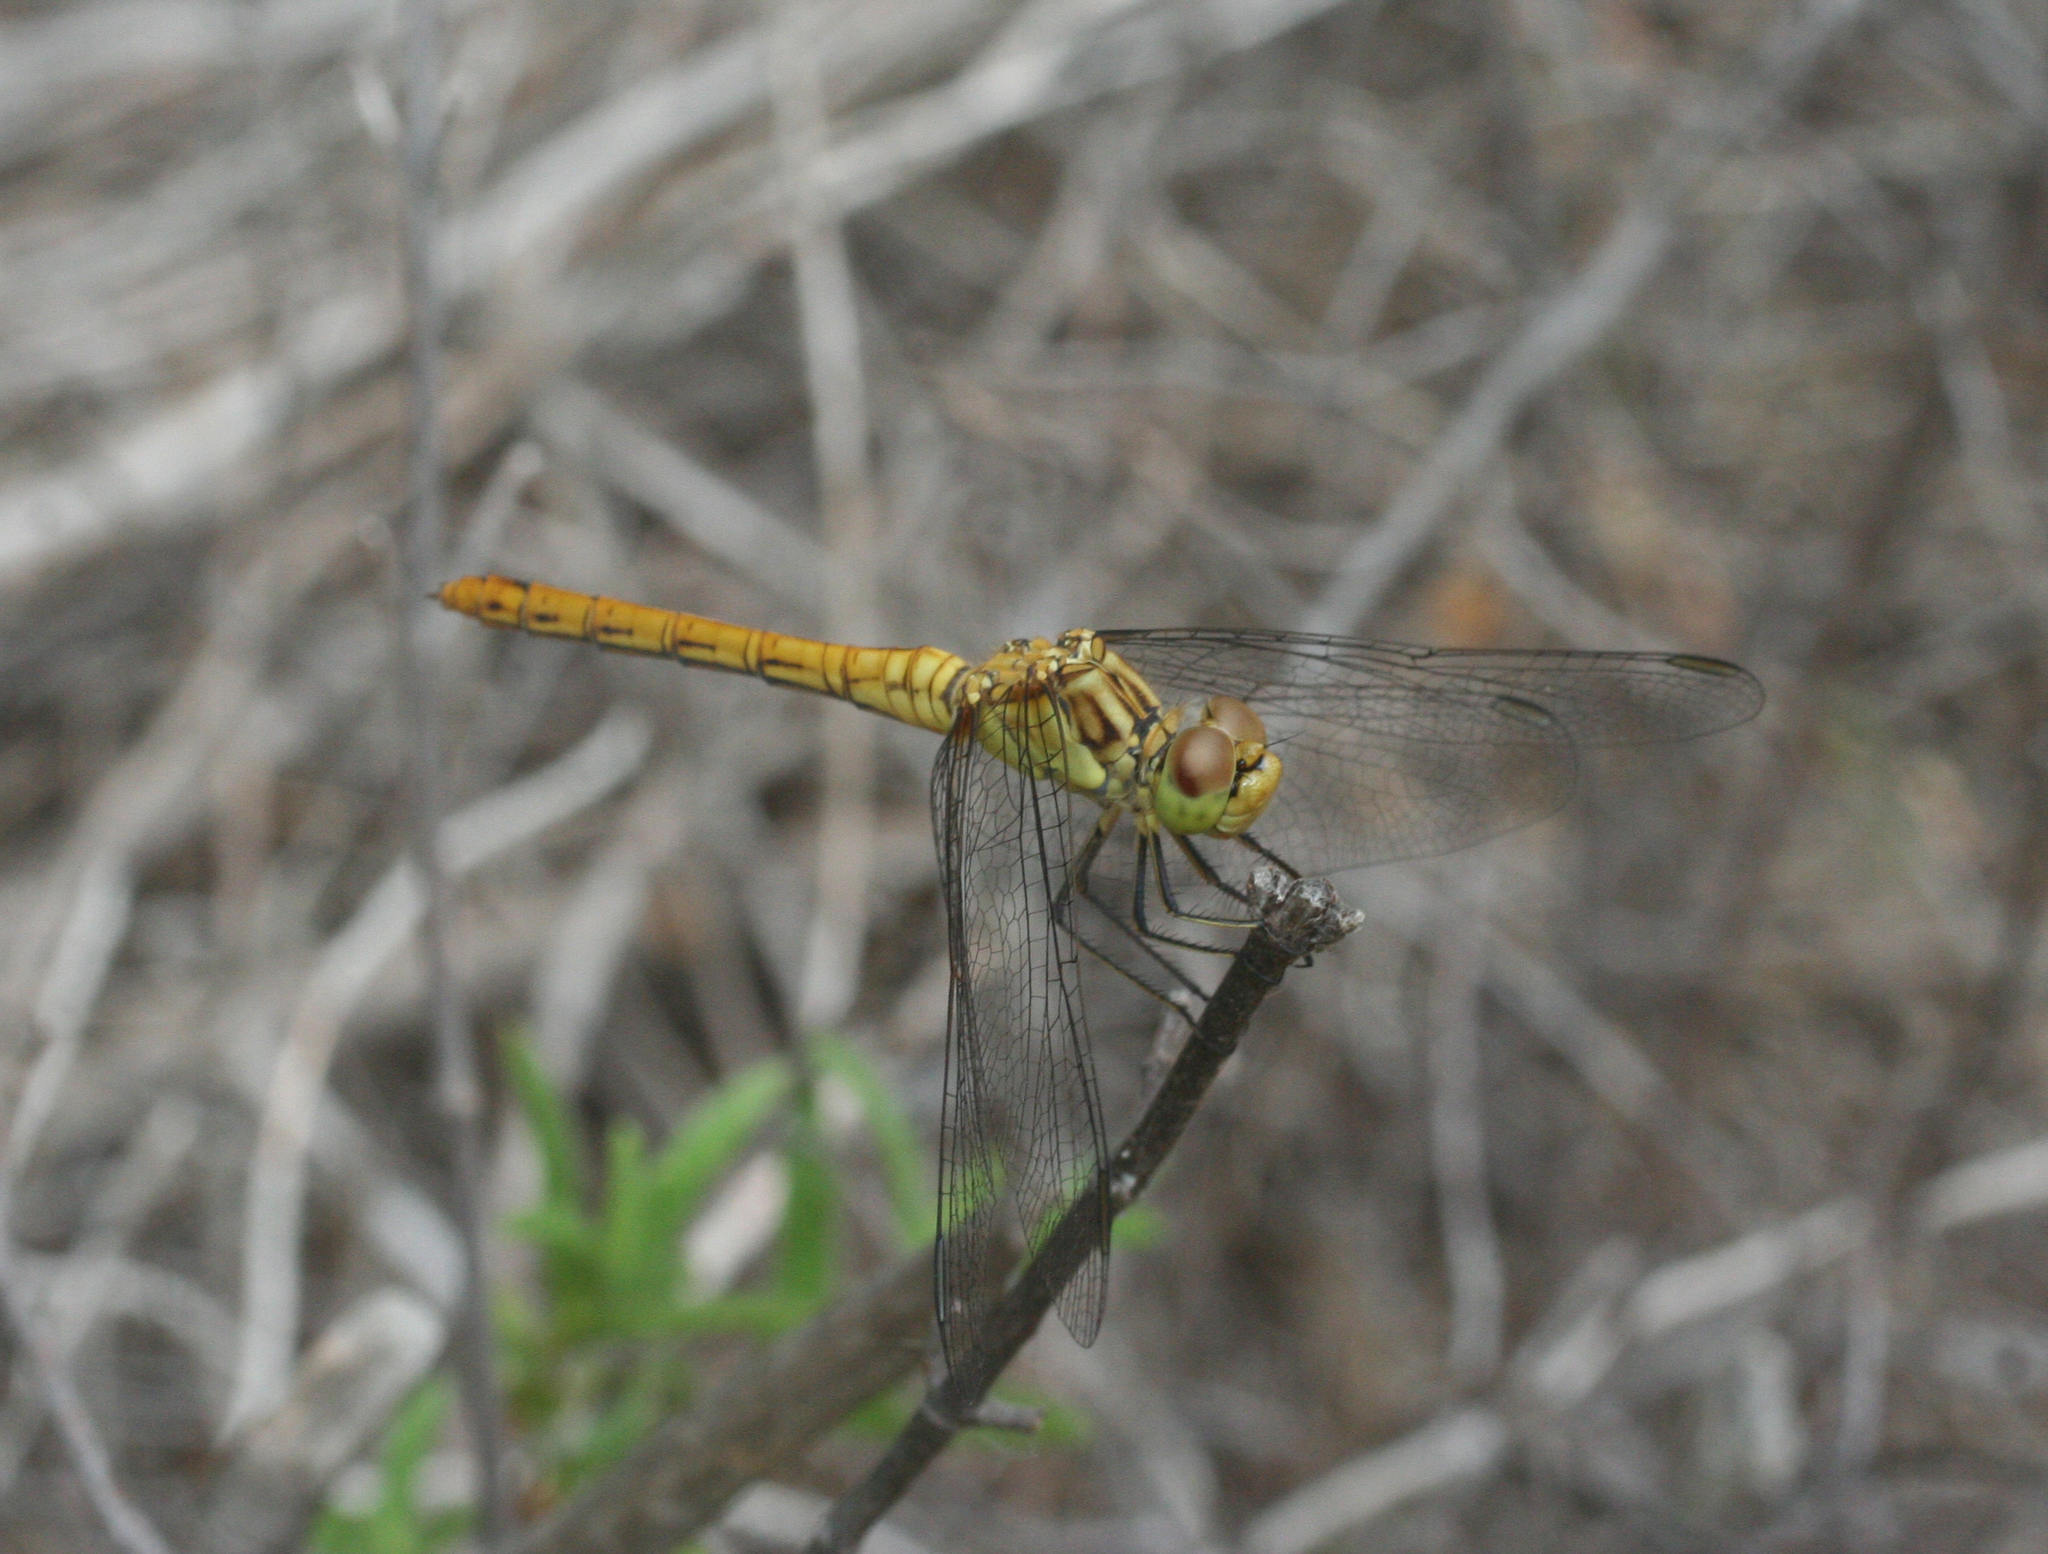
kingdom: Animalia
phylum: Arthropoda
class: Insecta
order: Odonata
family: Libellulidae
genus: Sympetrum
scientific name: Sympetrum striolatum
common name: Common darter
